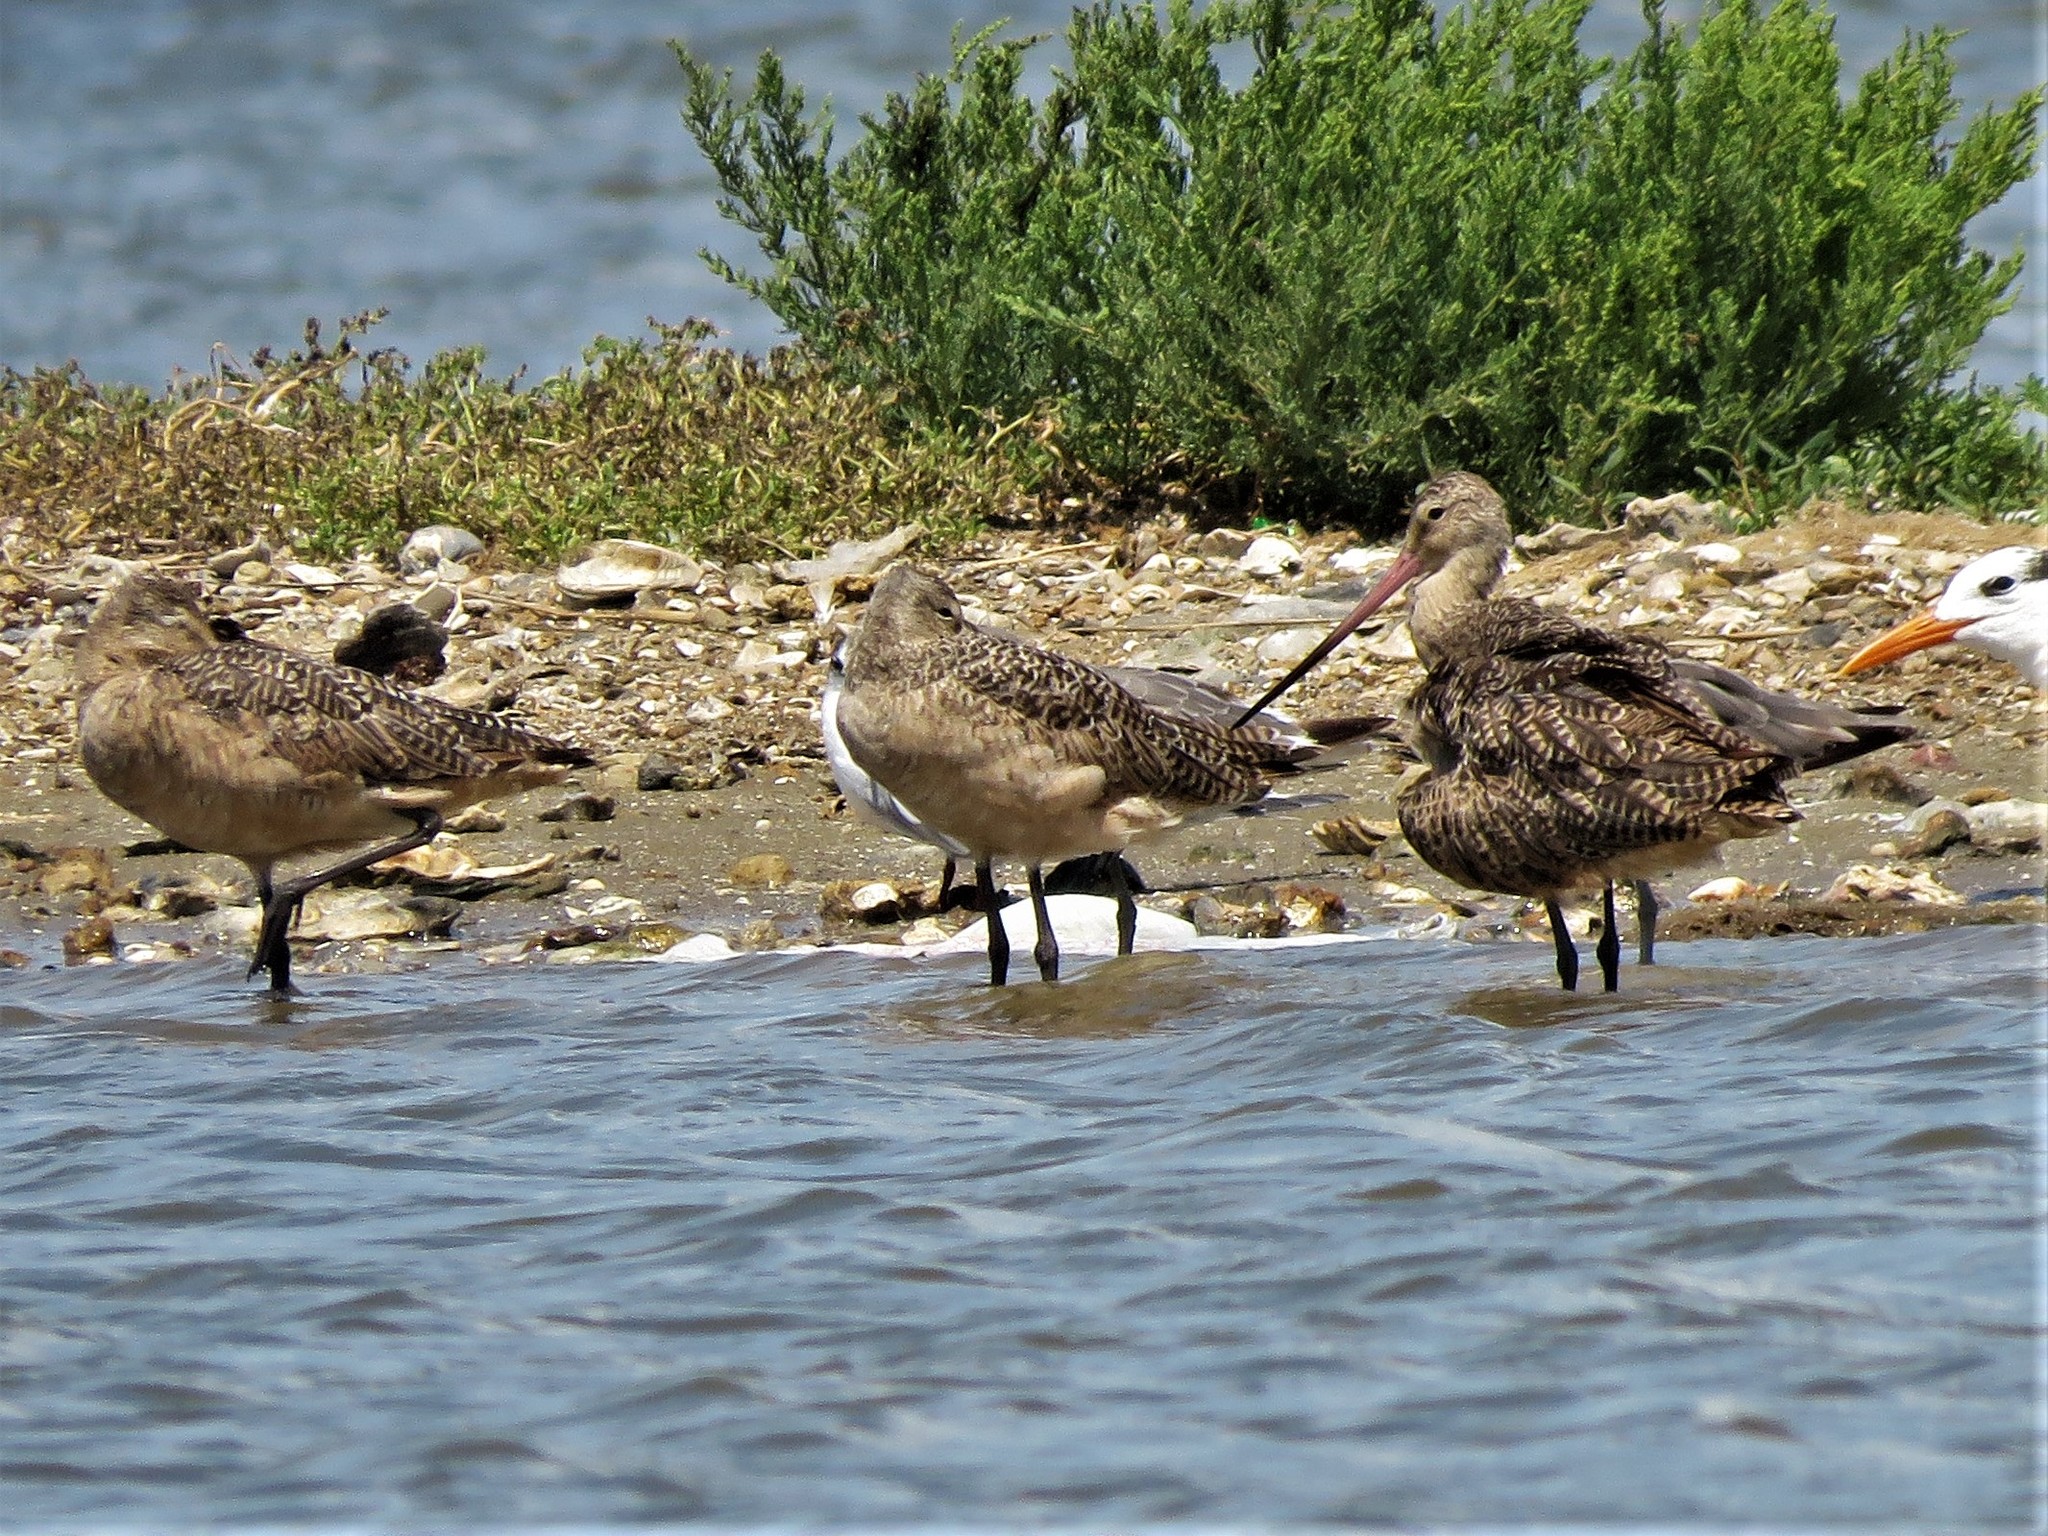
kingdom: Animalia
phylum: Chordata
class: Aves
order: Charadriiformes
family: Scolopacidae
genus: Limosa
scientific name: Limosa fedoa
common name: Marbled godwit
